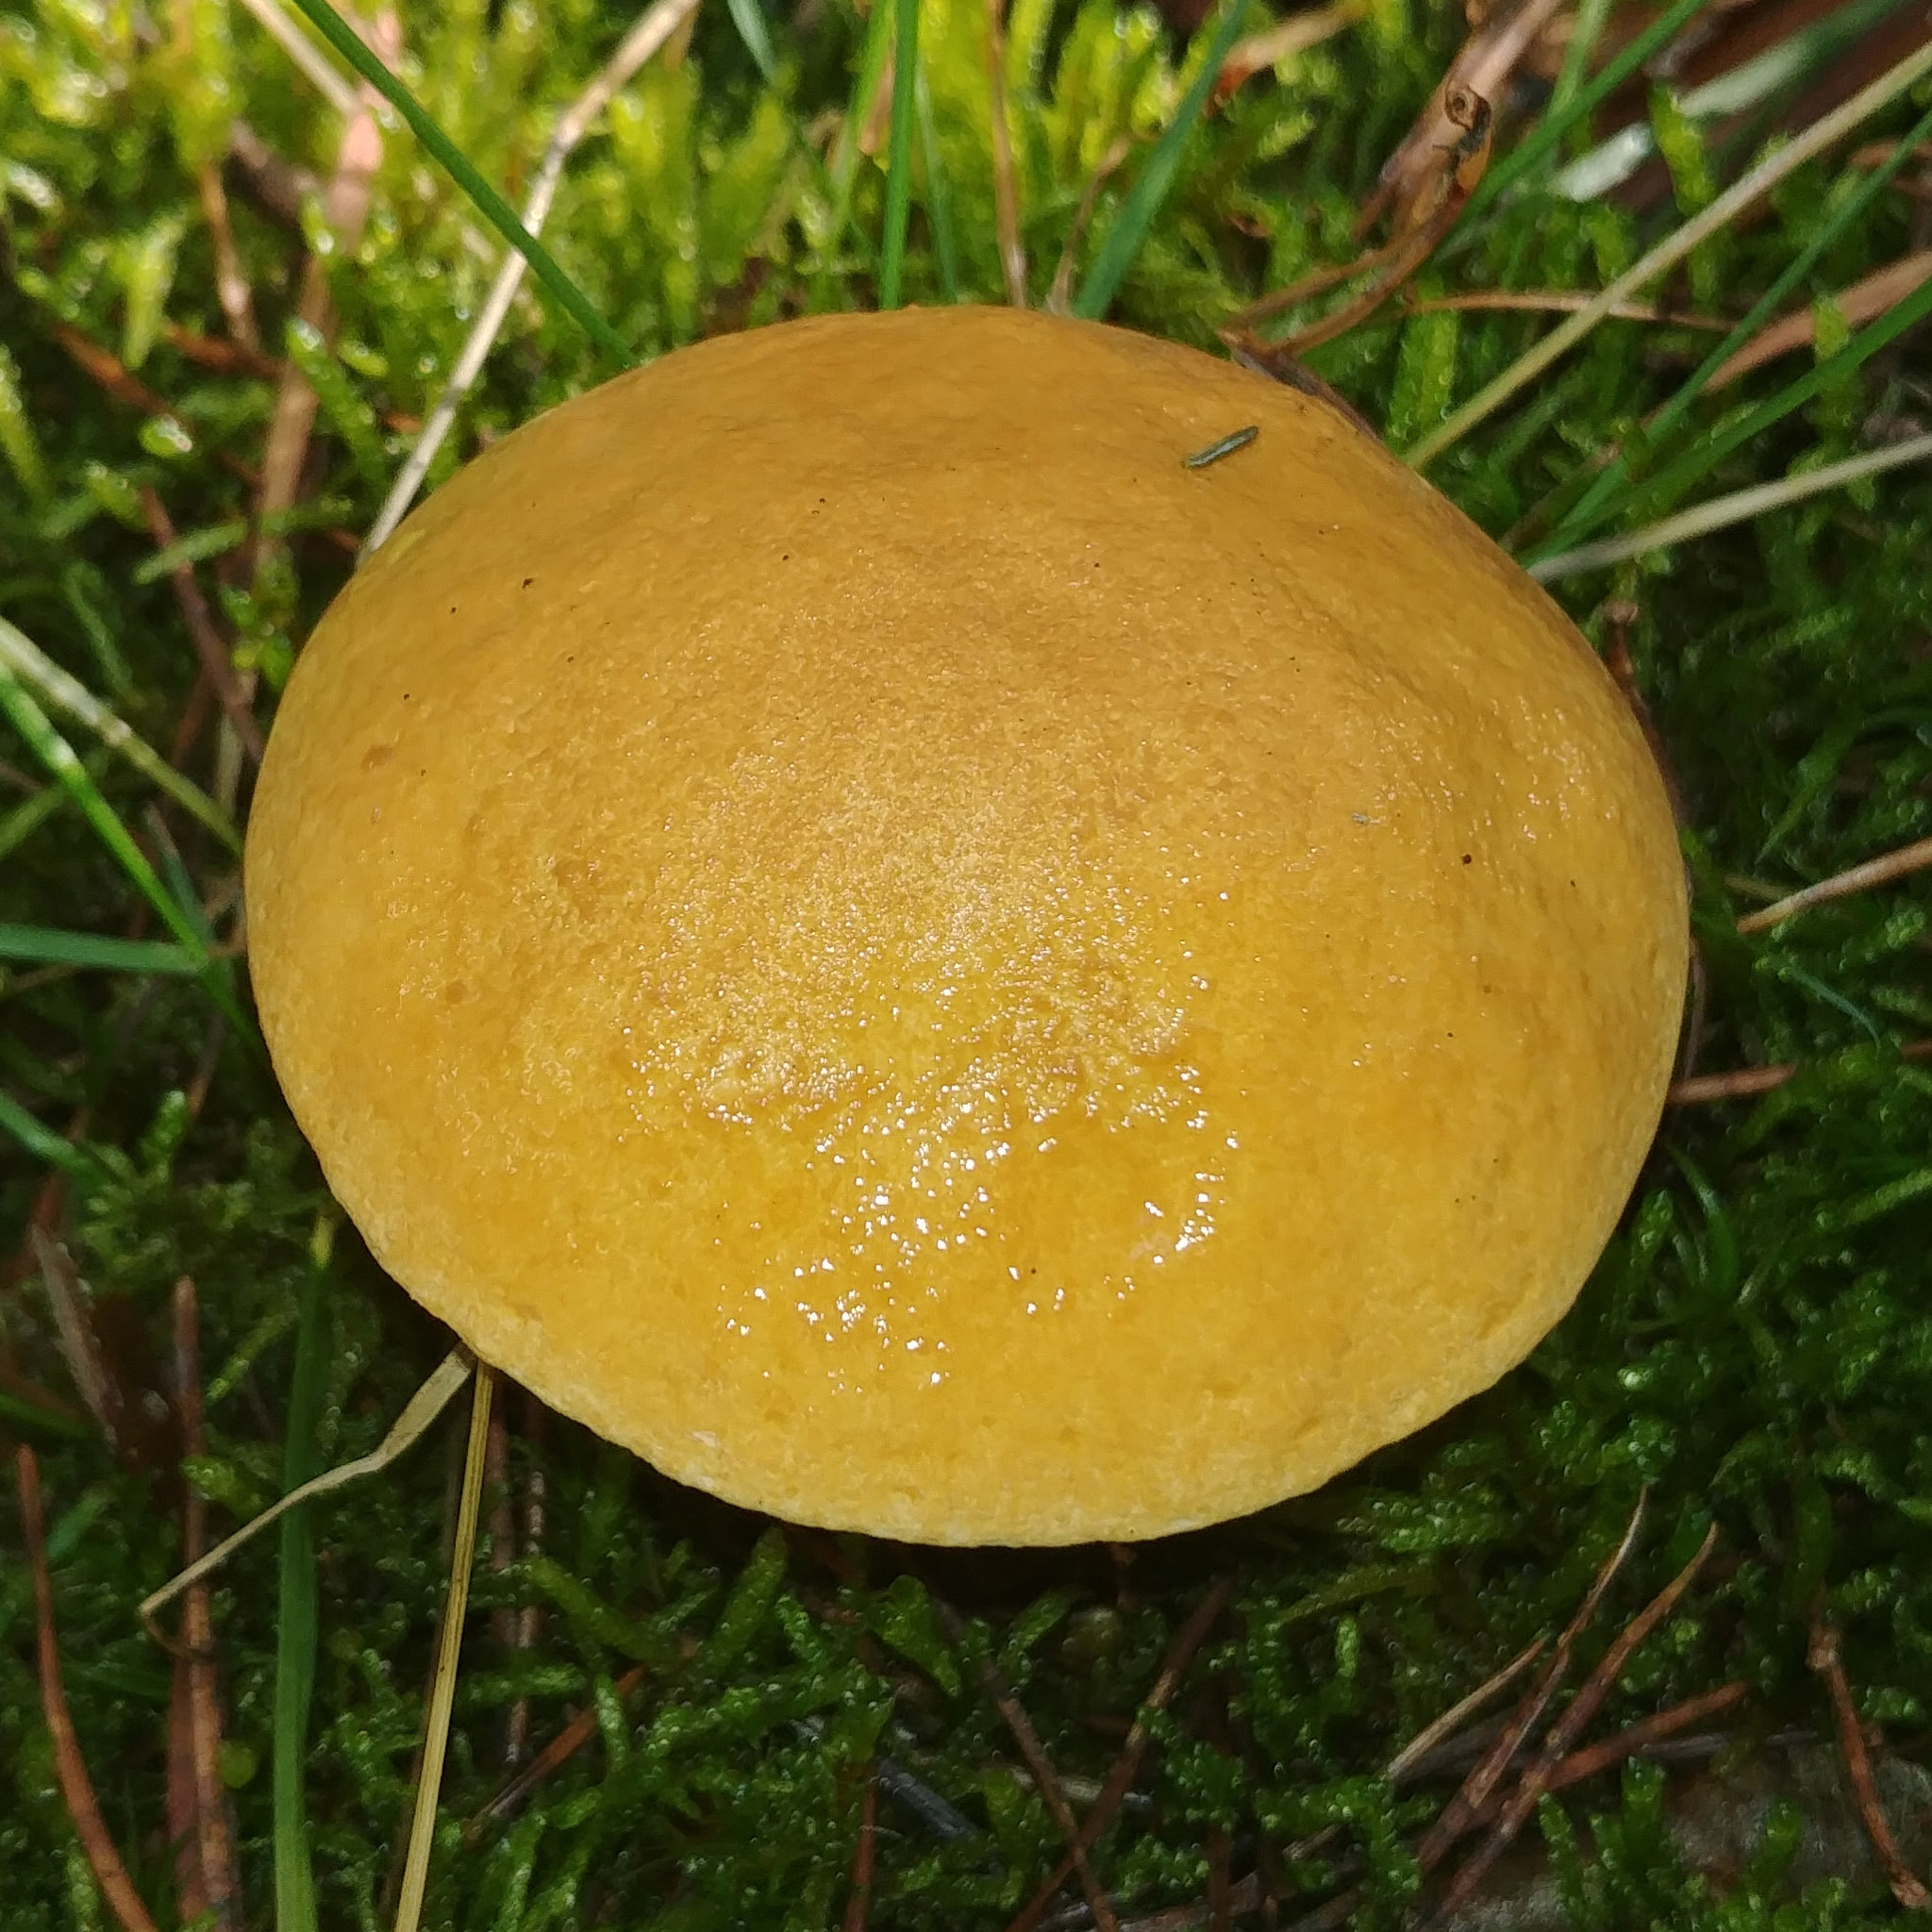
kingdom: Fungi
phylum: Basidiomycota
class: Agaricomycetes
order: Boletales
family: Suillaceae
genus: Suillus
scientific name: Suillus bovinus
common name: Bovine bolete
